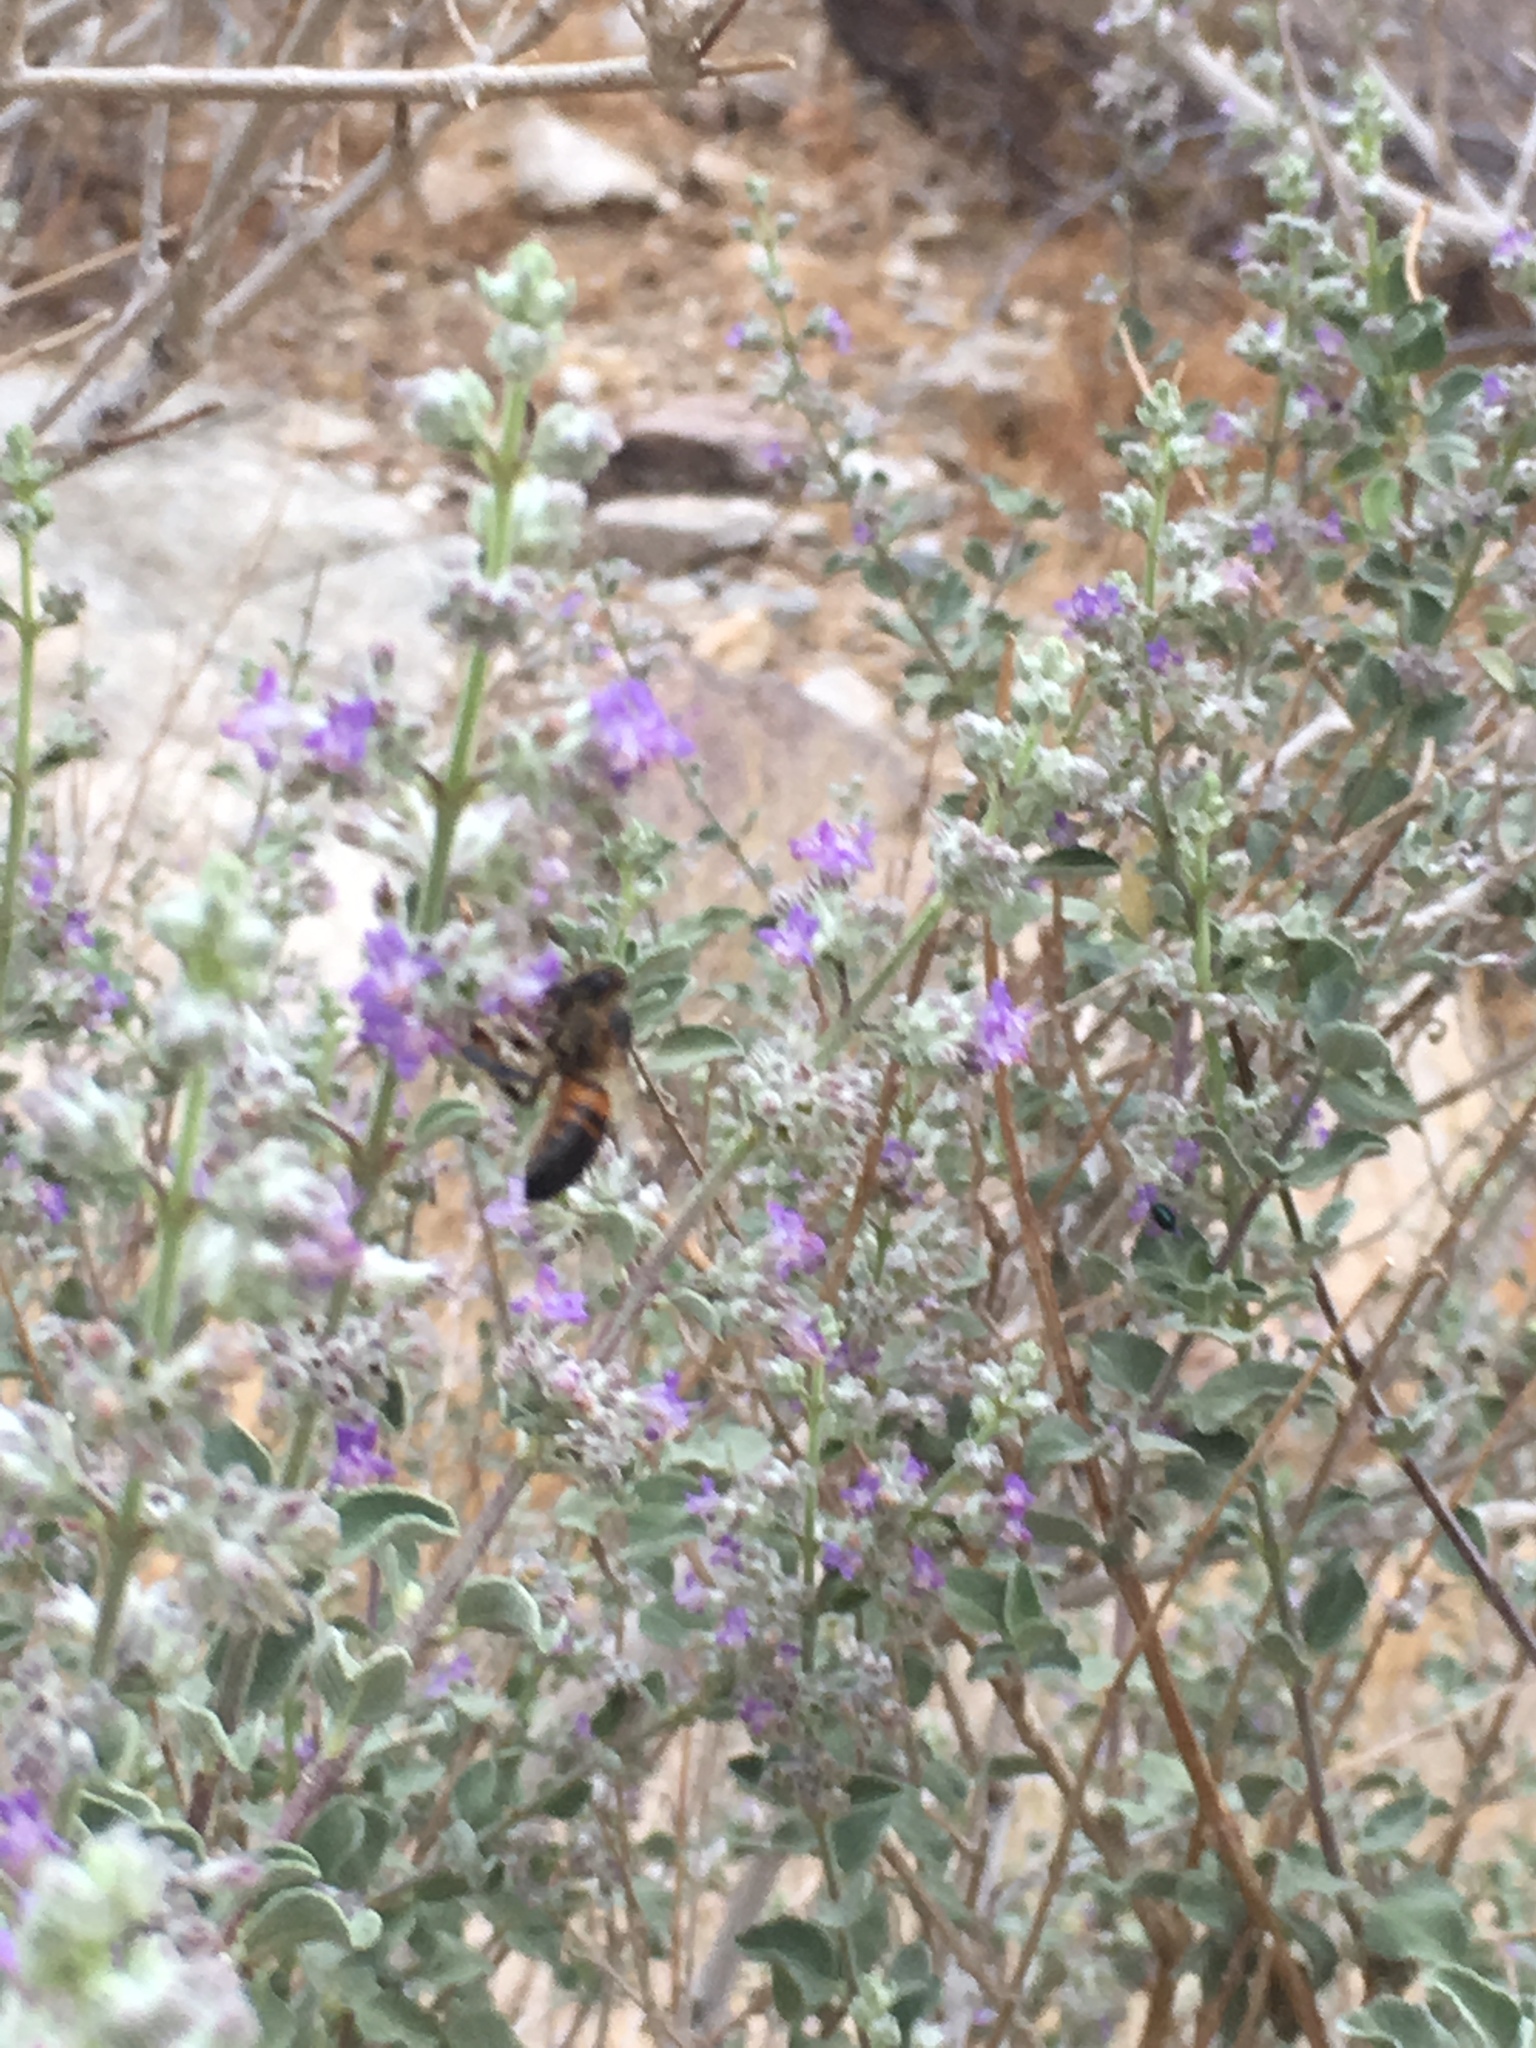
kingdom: Animalia
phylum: Arthropoda
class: Insecta
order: Hymenoptera
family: Apidae
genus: Apis
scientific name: Apis mellifera
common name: Honey bee
